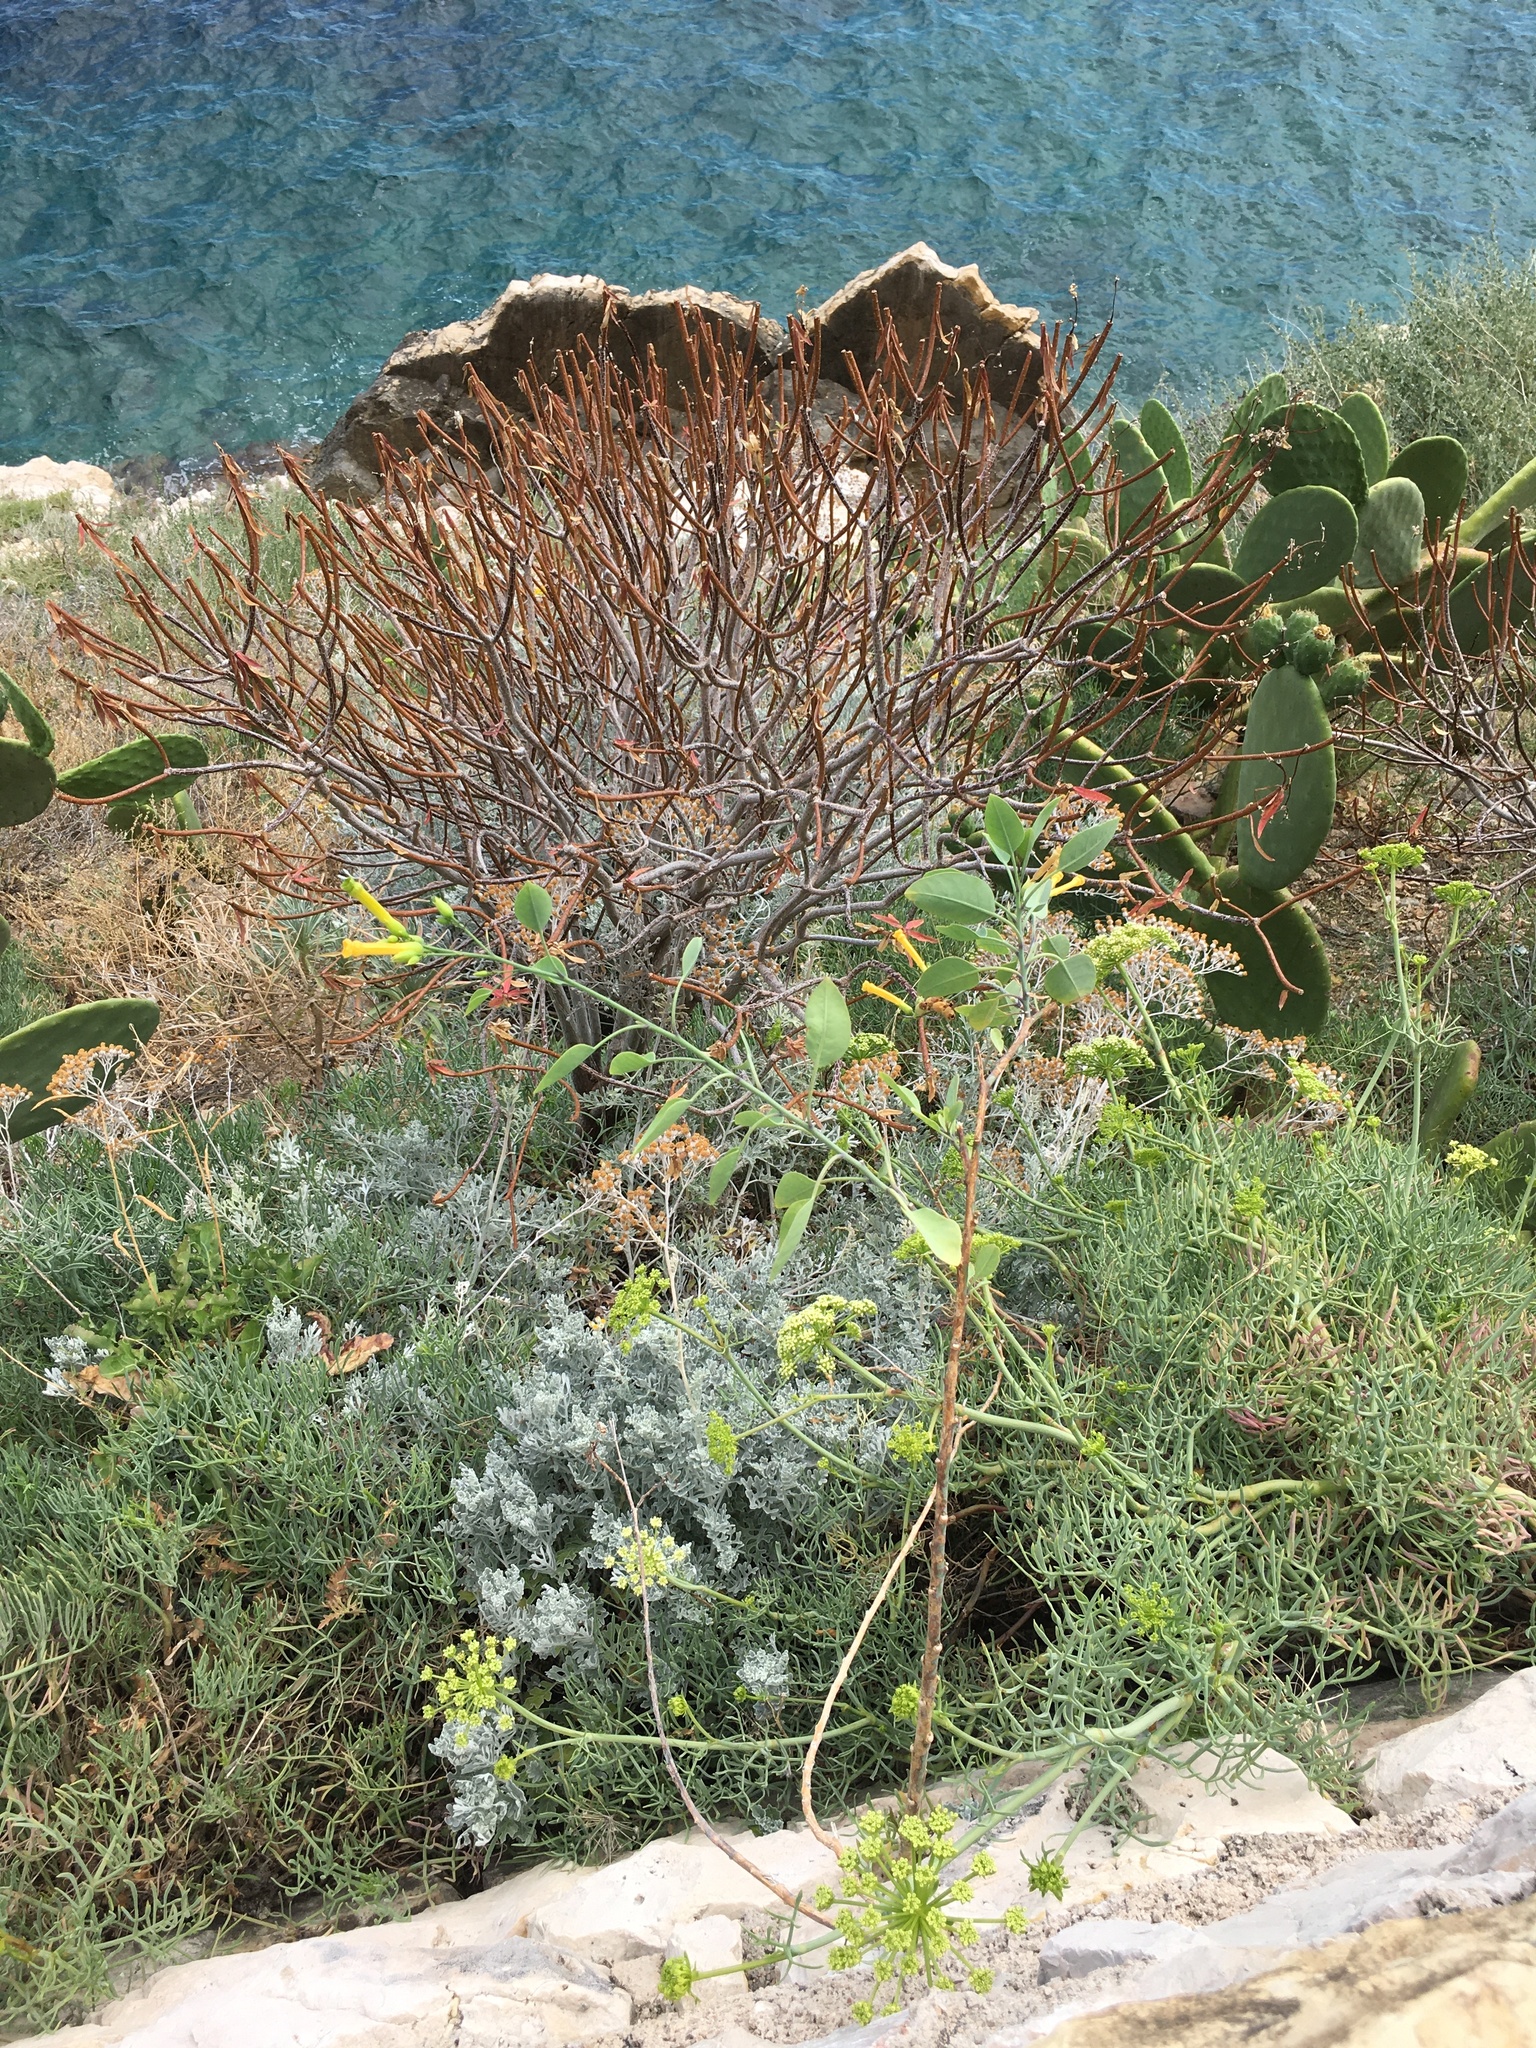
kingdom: Plantae
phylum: Tracheophyta
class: Magnoliopsida
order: Solanales
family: Solanaceae
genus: Nicotiana
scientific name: Nicotiana glauca
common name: Tree tobacco
